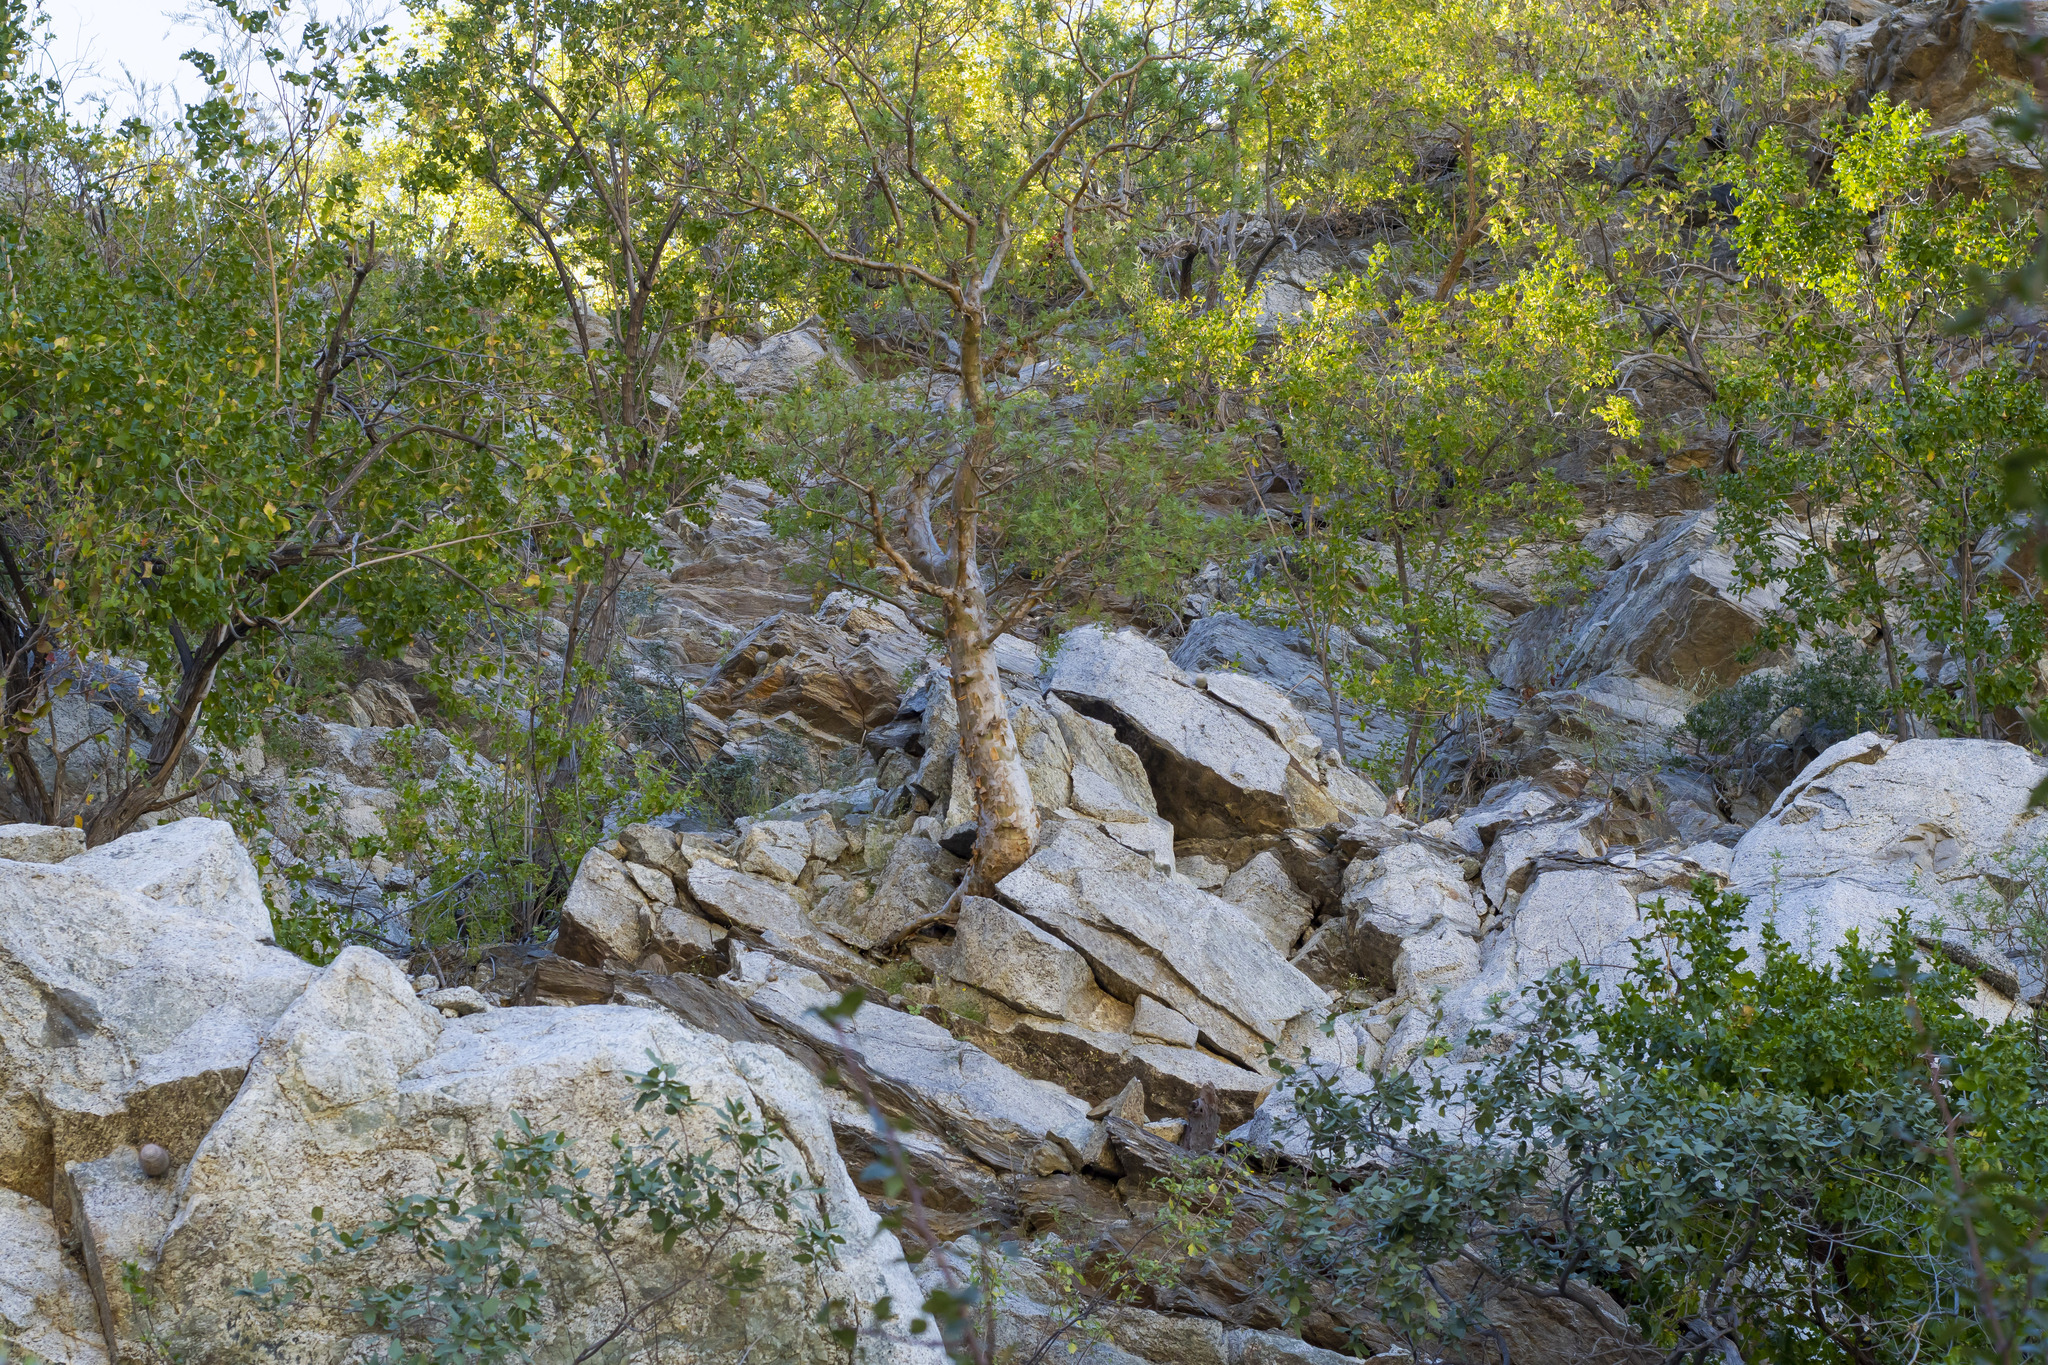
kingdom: Plantae
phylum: Tracheophyta
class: Magnoliopsida
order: Sapindales
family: Anacardiaceae
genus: Pachycormus
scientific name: Pachycormus discolor
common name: Succulent elephant trees
